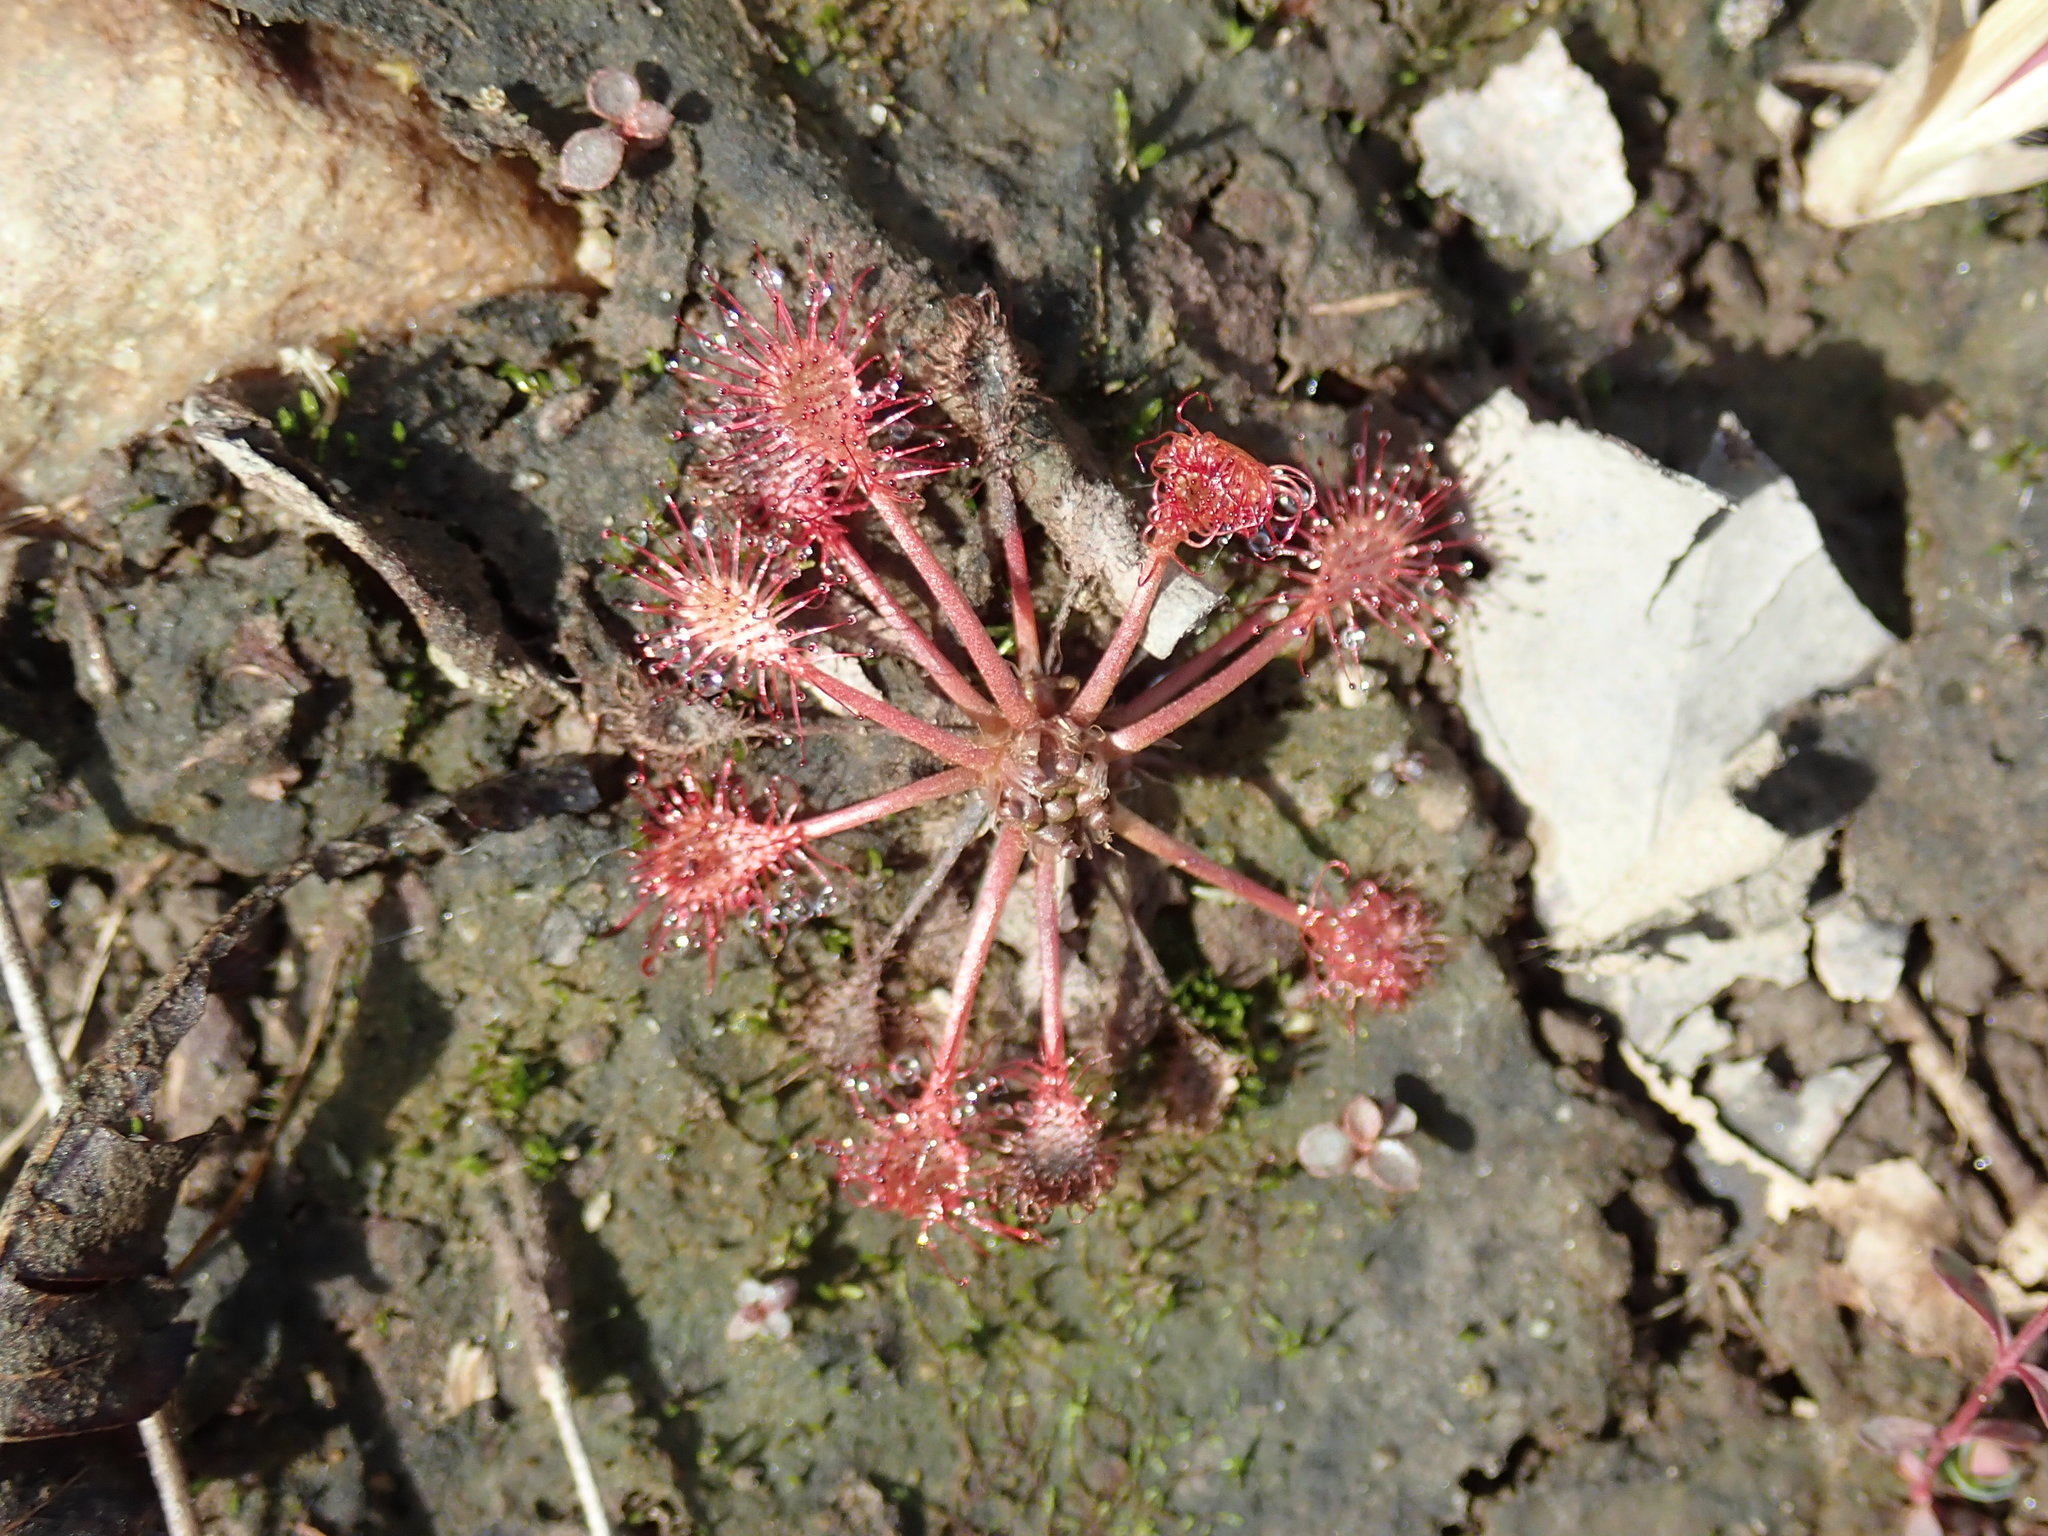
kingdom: Plantae
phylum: Tracheophyta
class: Magnoliopsida
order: Caryophyllales
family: Droseraceae
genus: Drosera
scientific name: Drosera intermedia
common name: Oblong-leaved sundew
